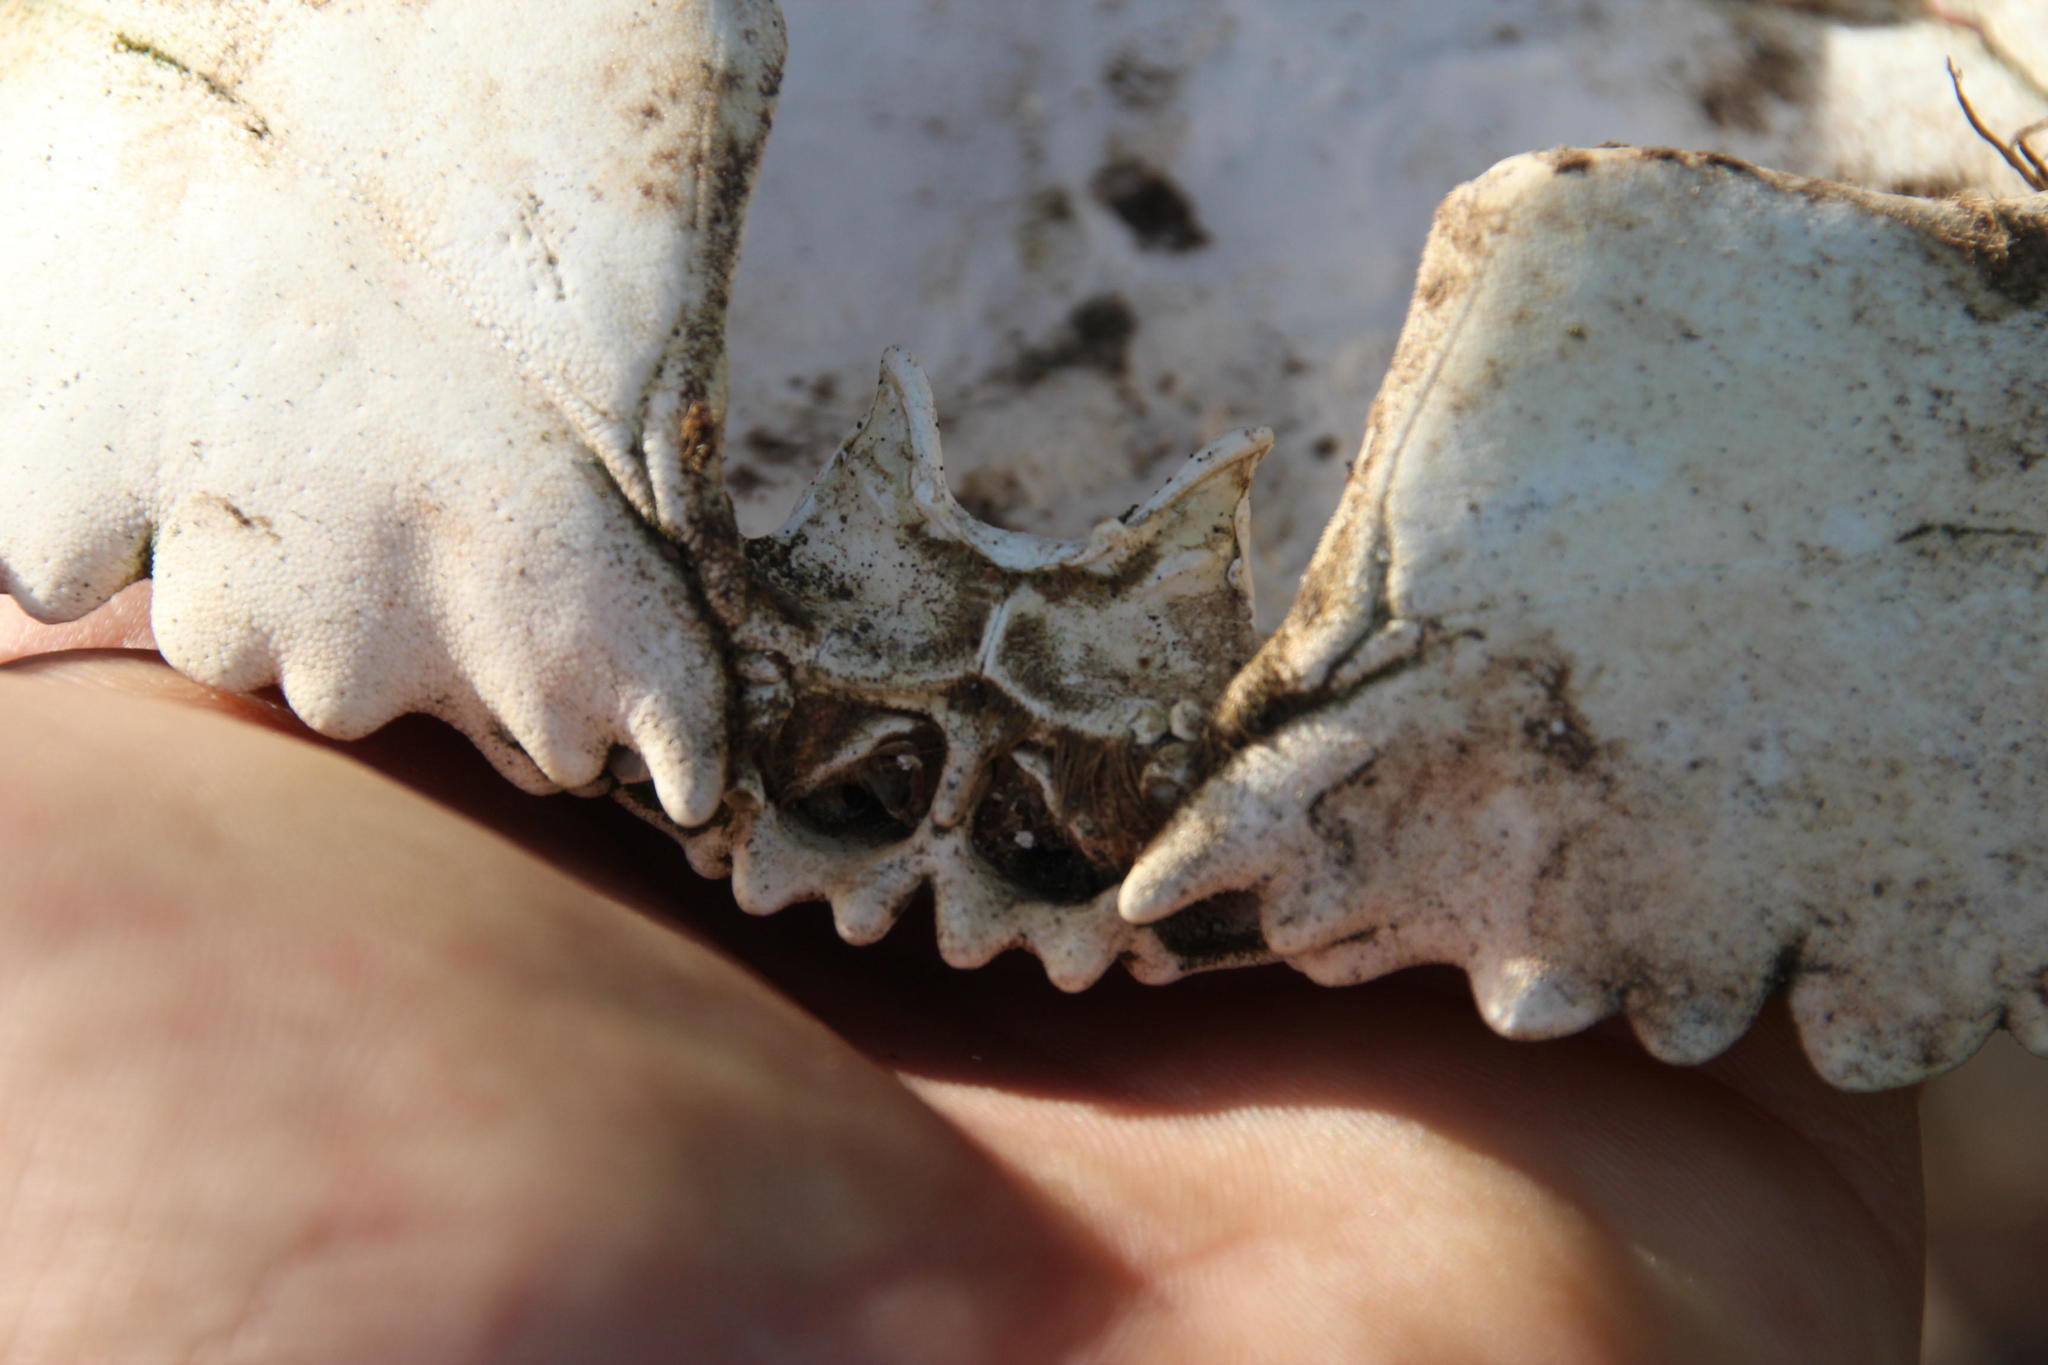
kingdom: Animalia
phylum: Arthropoda
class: Malacostraca
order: Decapoda
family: Platyxanthidae
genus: Platyxanthus
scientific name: Platyxanthus orbignyi
